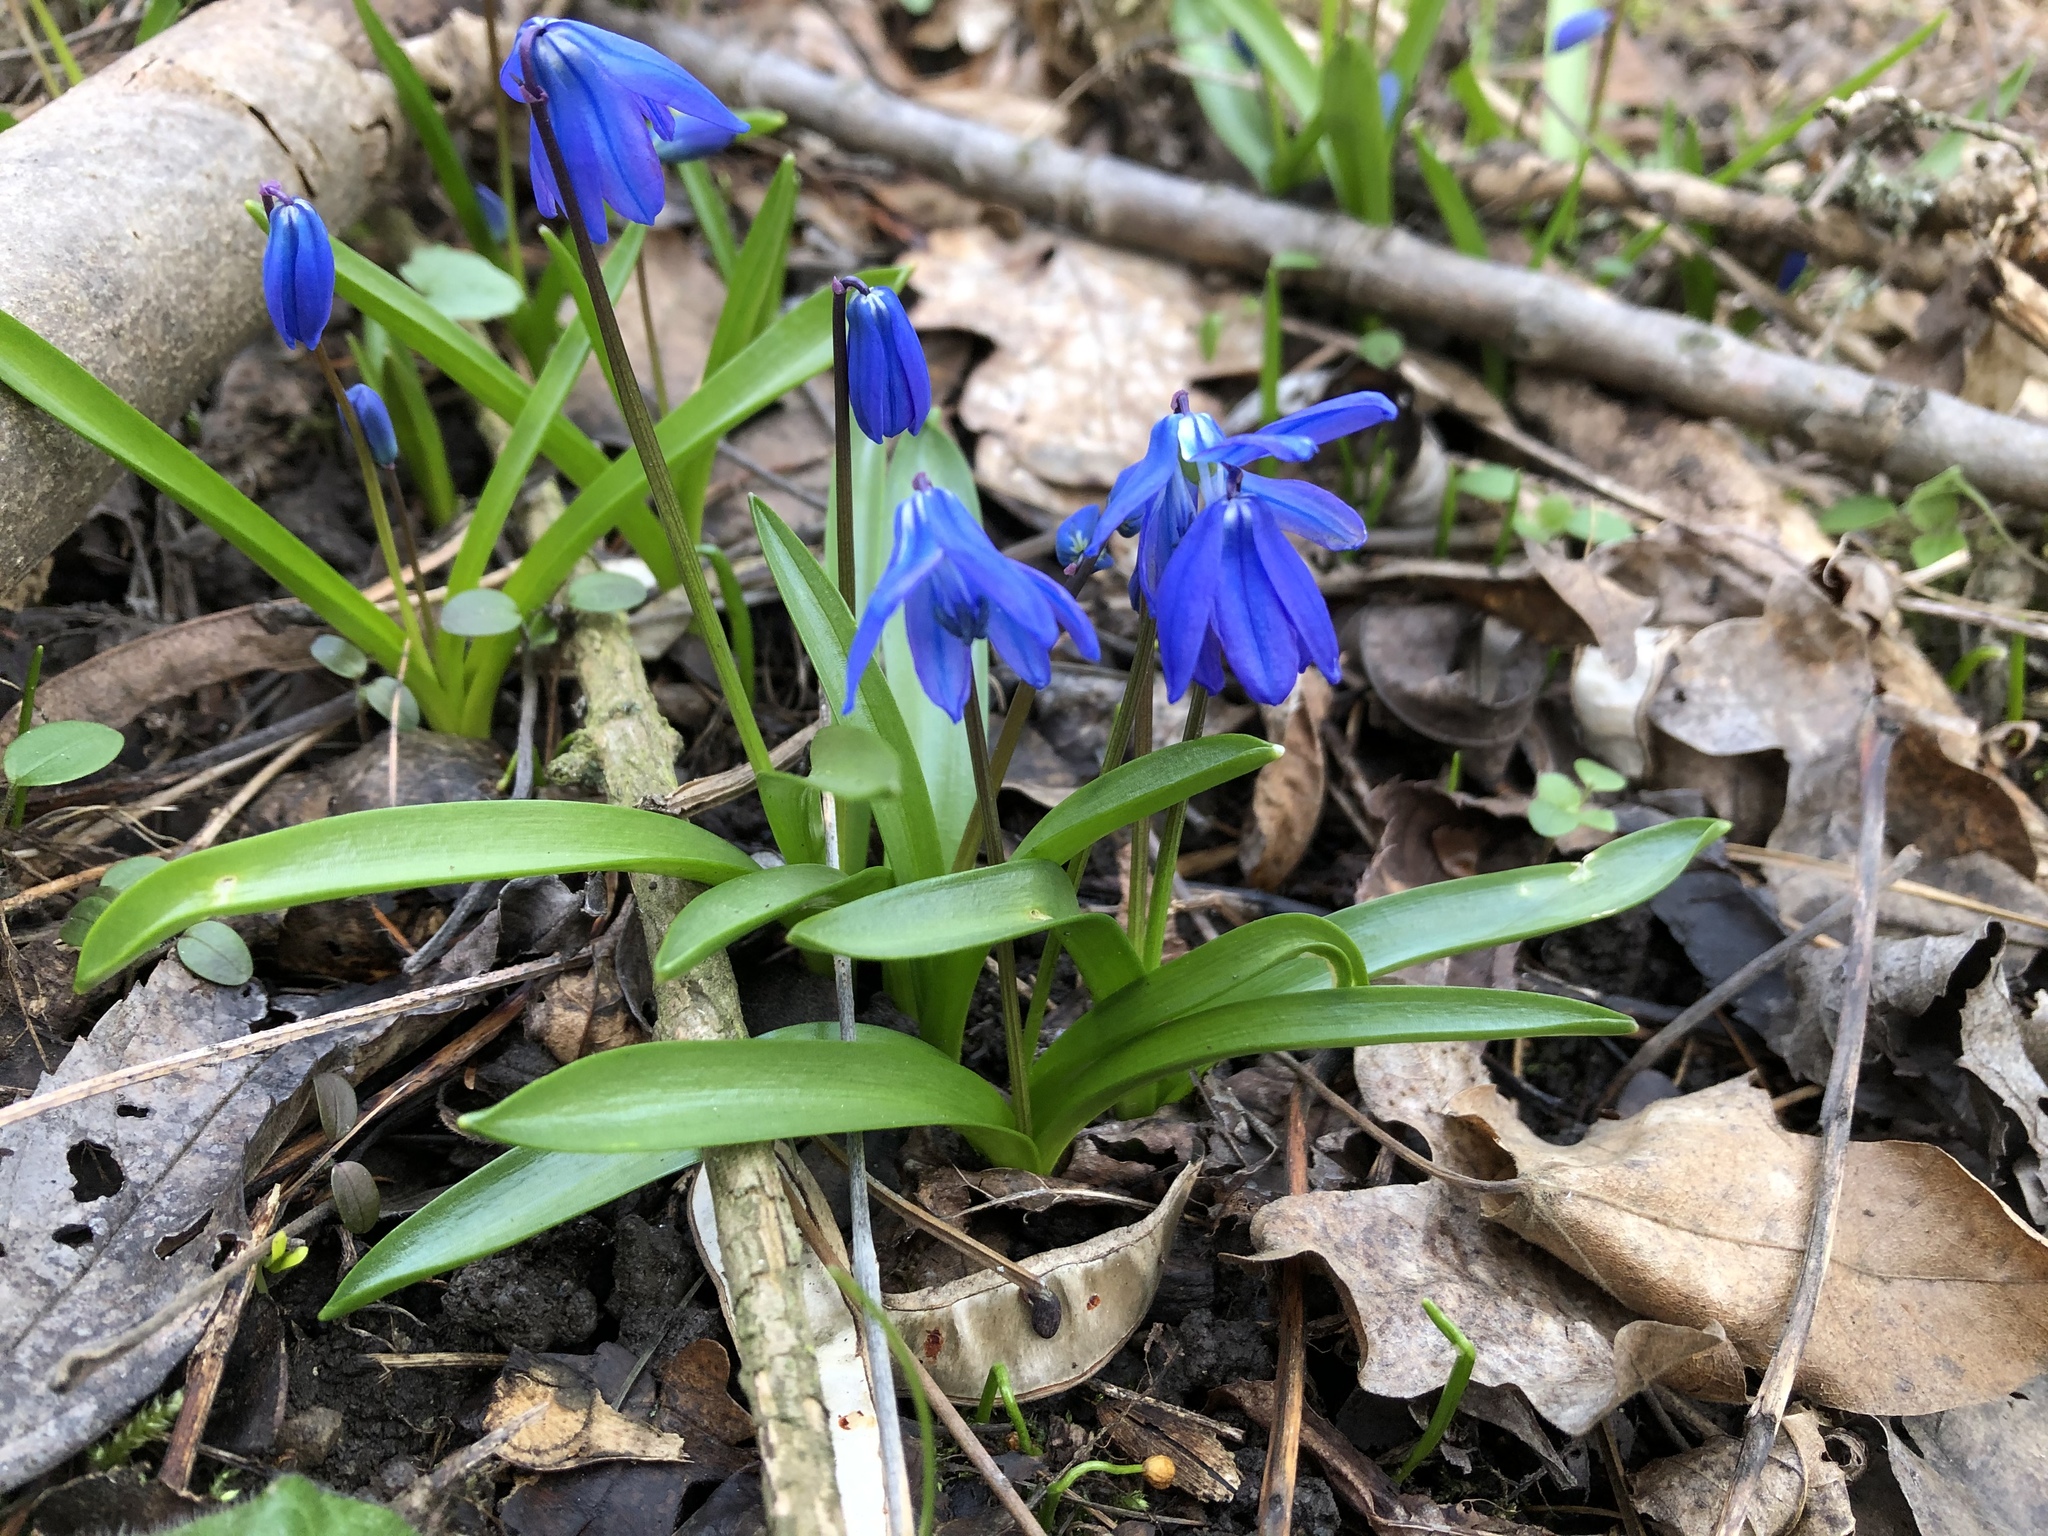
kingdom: Plantae
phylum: Tracheophyta
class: Liliopsida
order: Asparagales
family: Asparagaceae
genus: Scilla
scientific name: Scilla siberica
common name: Siberian squill
